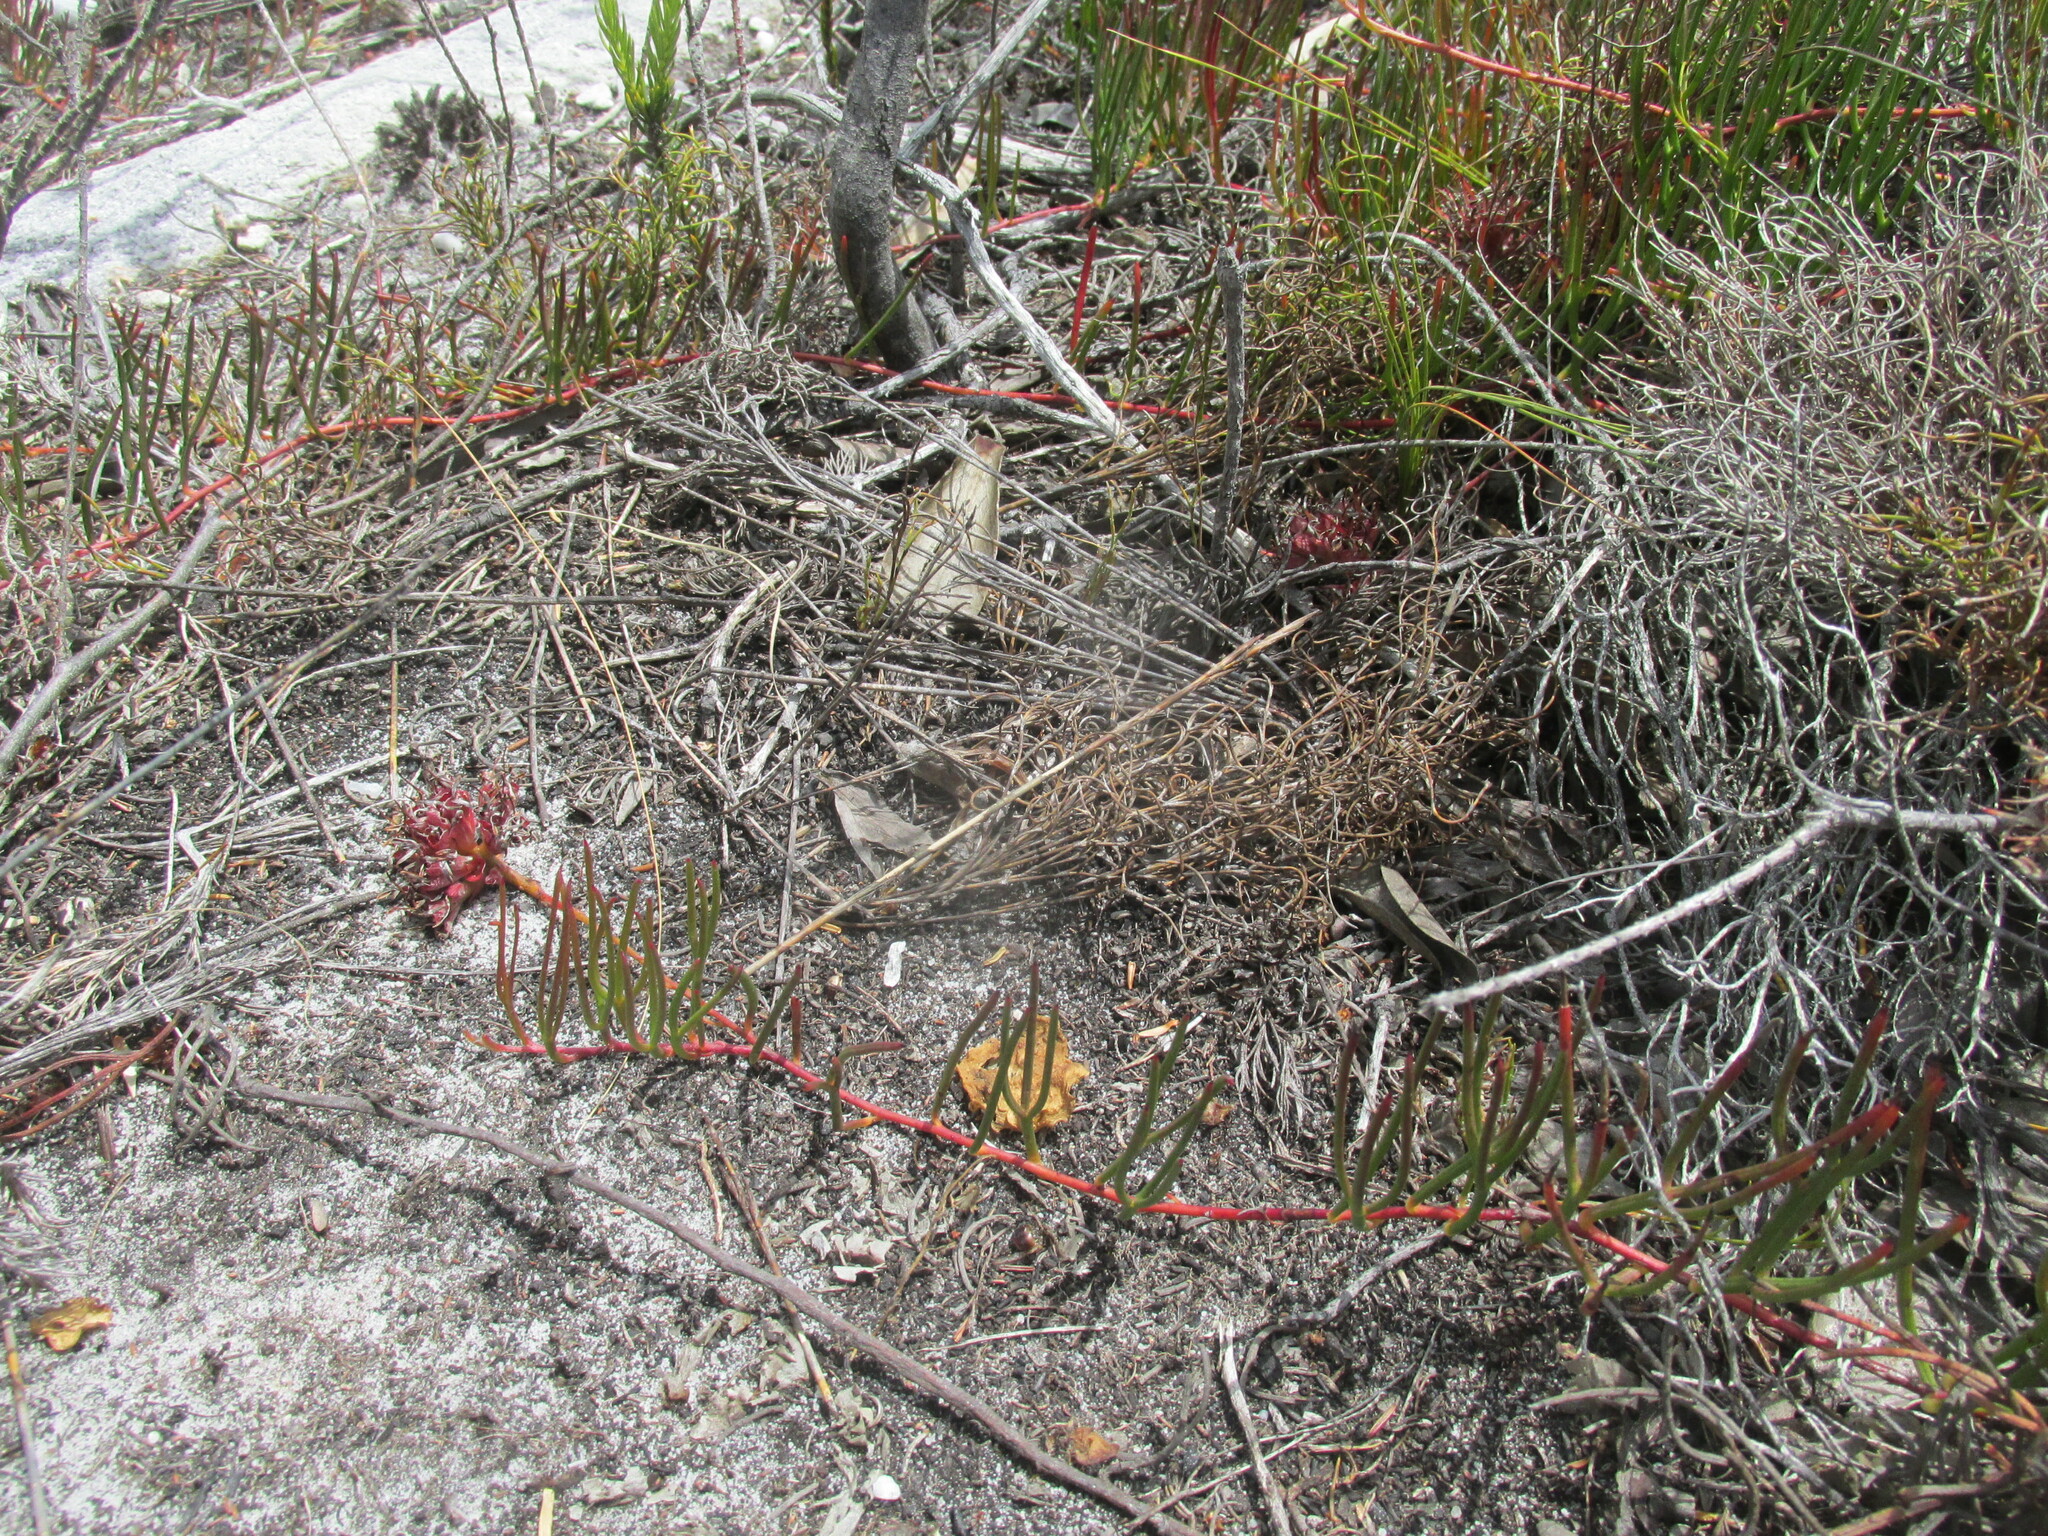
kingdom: Plantae
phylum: Tracheophyta
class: Magnoliopsida
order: Proteales
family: Proteaceae
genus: Serruria
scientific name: Serruria decumbens
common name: Peninsula spiderhead
